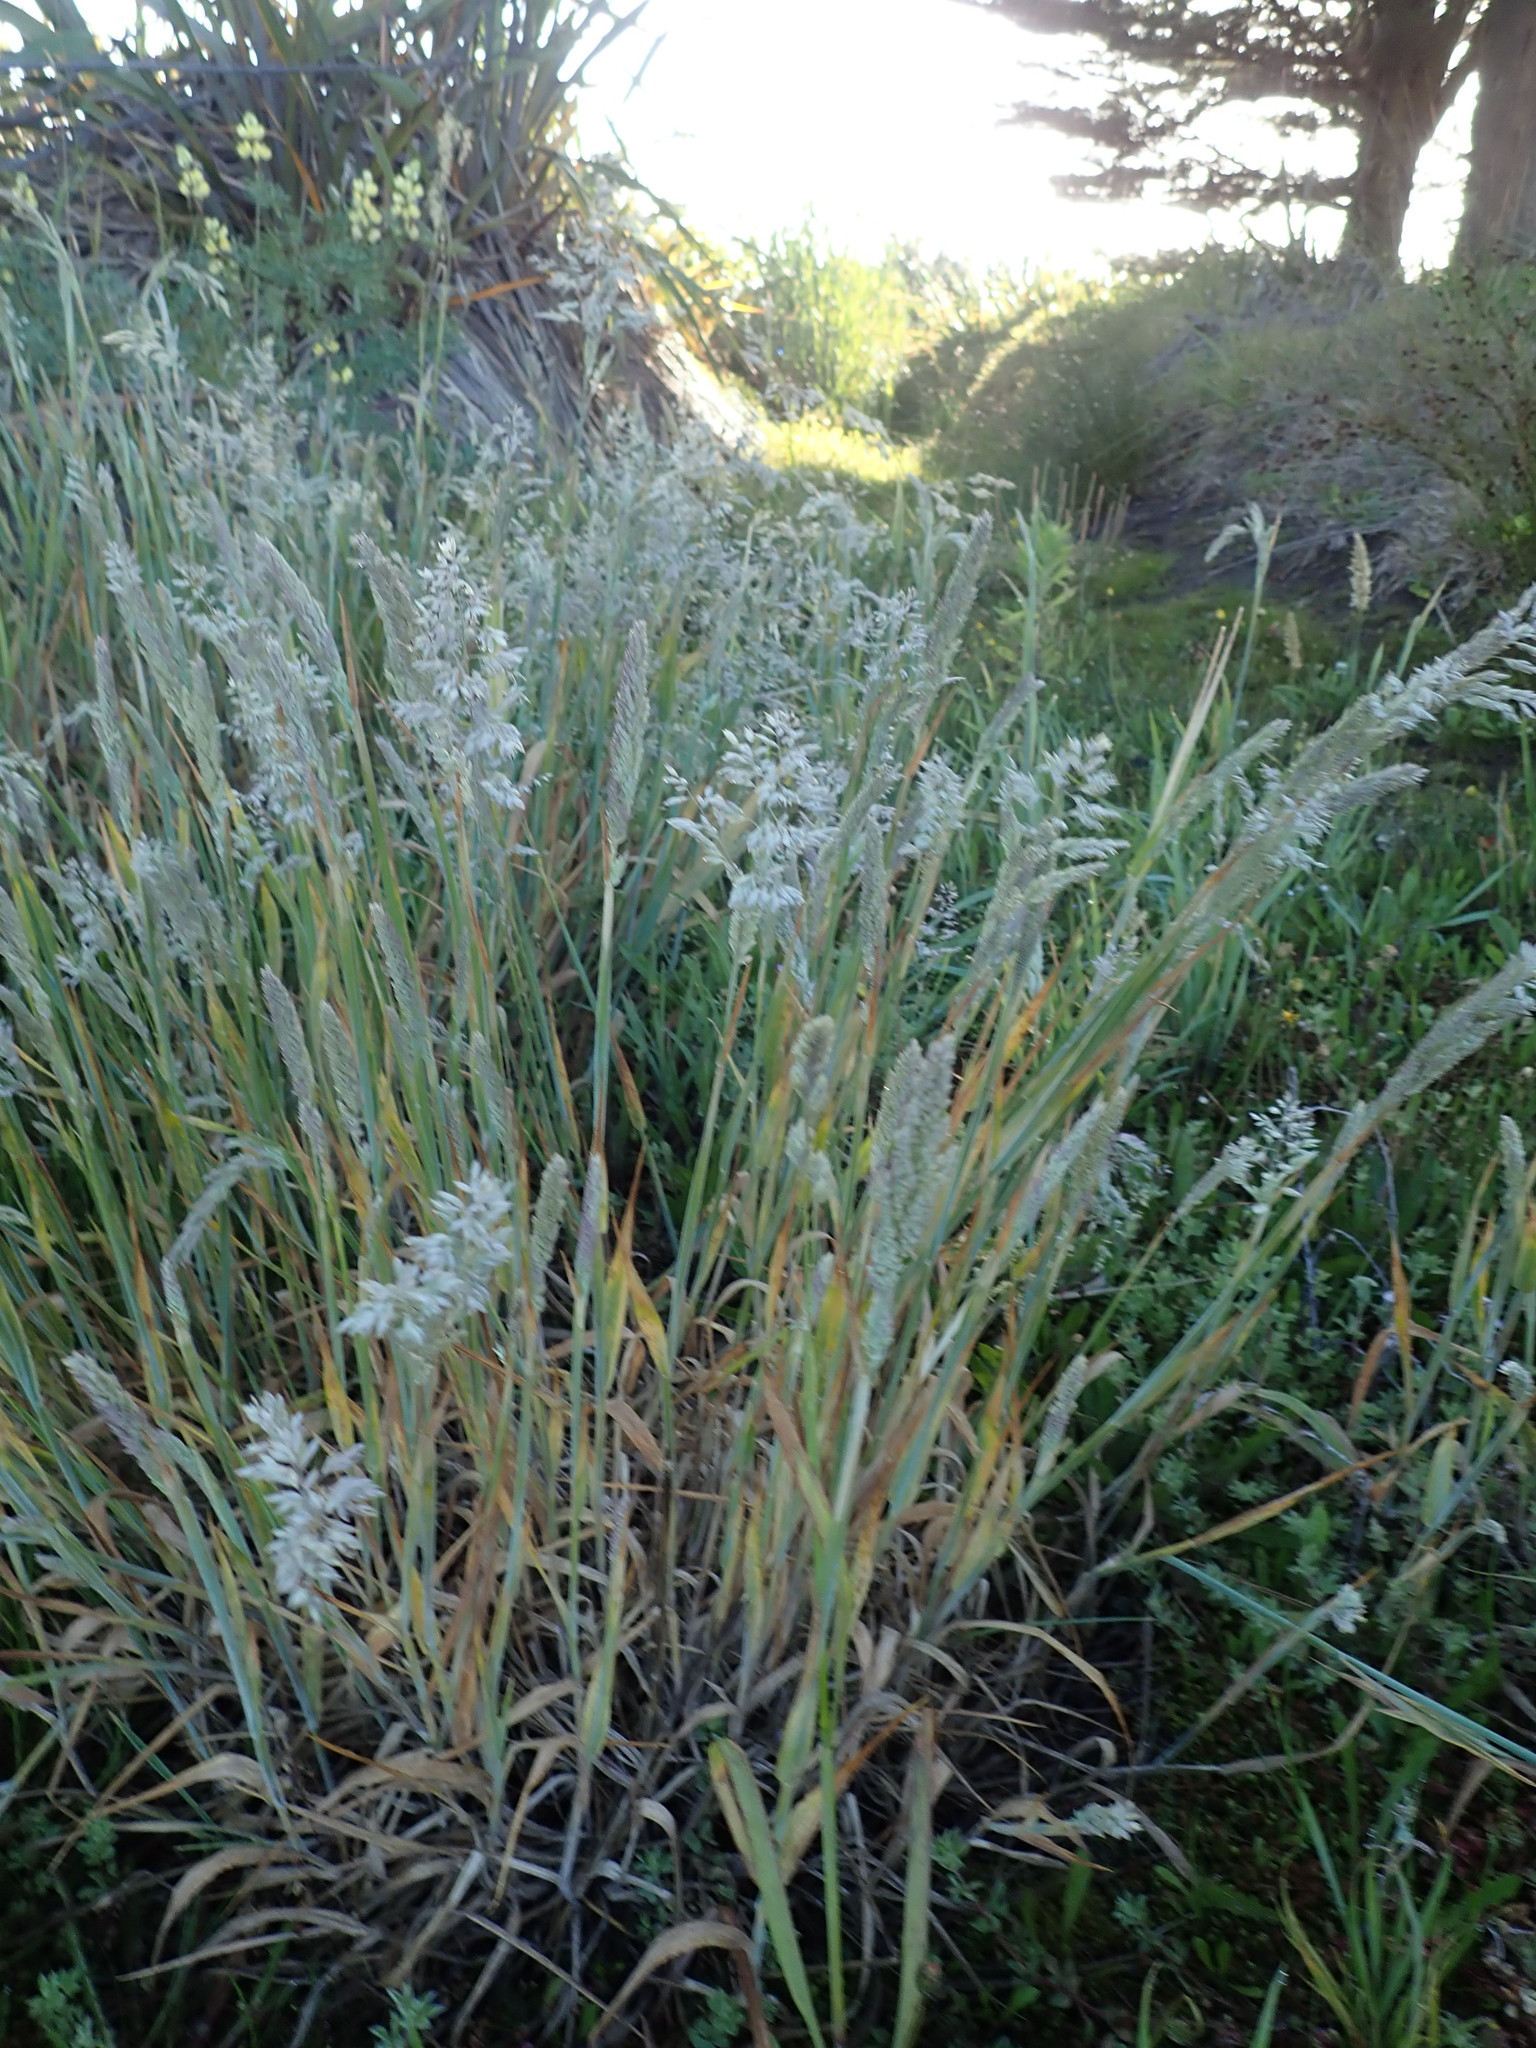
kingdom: Plantae
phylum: Tracheophyta
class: Liliopsida
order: Poales
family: Poaceae
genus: Holcus
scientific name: Holcus lanatus
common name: Yorkshire-fog
